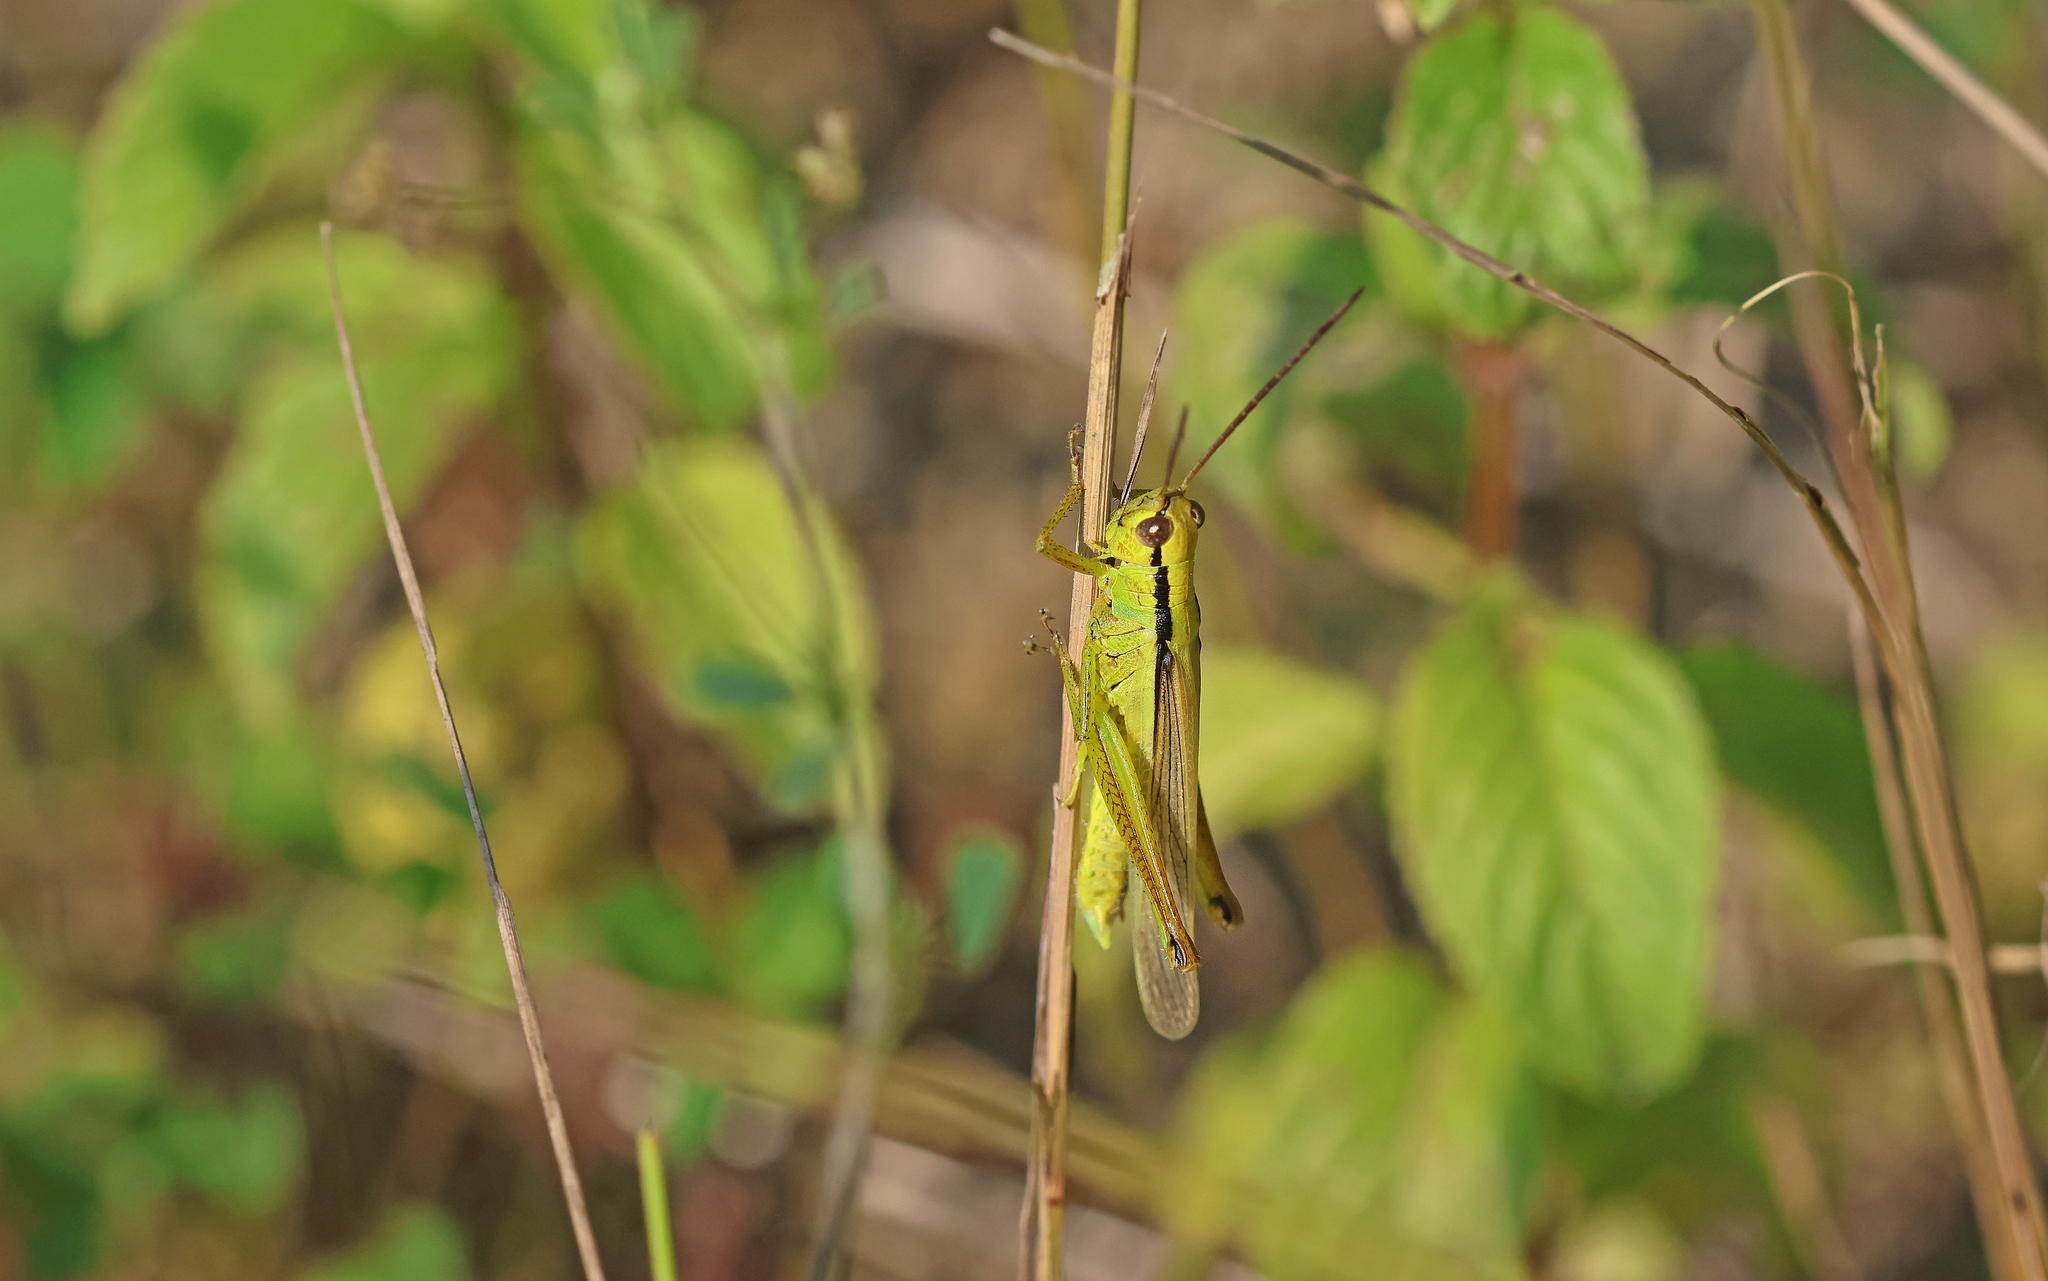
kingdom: Animalia
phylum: Arthropoda
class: Insecta
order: Orthoptera
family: Acrididae
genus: Mecostethus
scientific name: Mecostethus parapleurus
